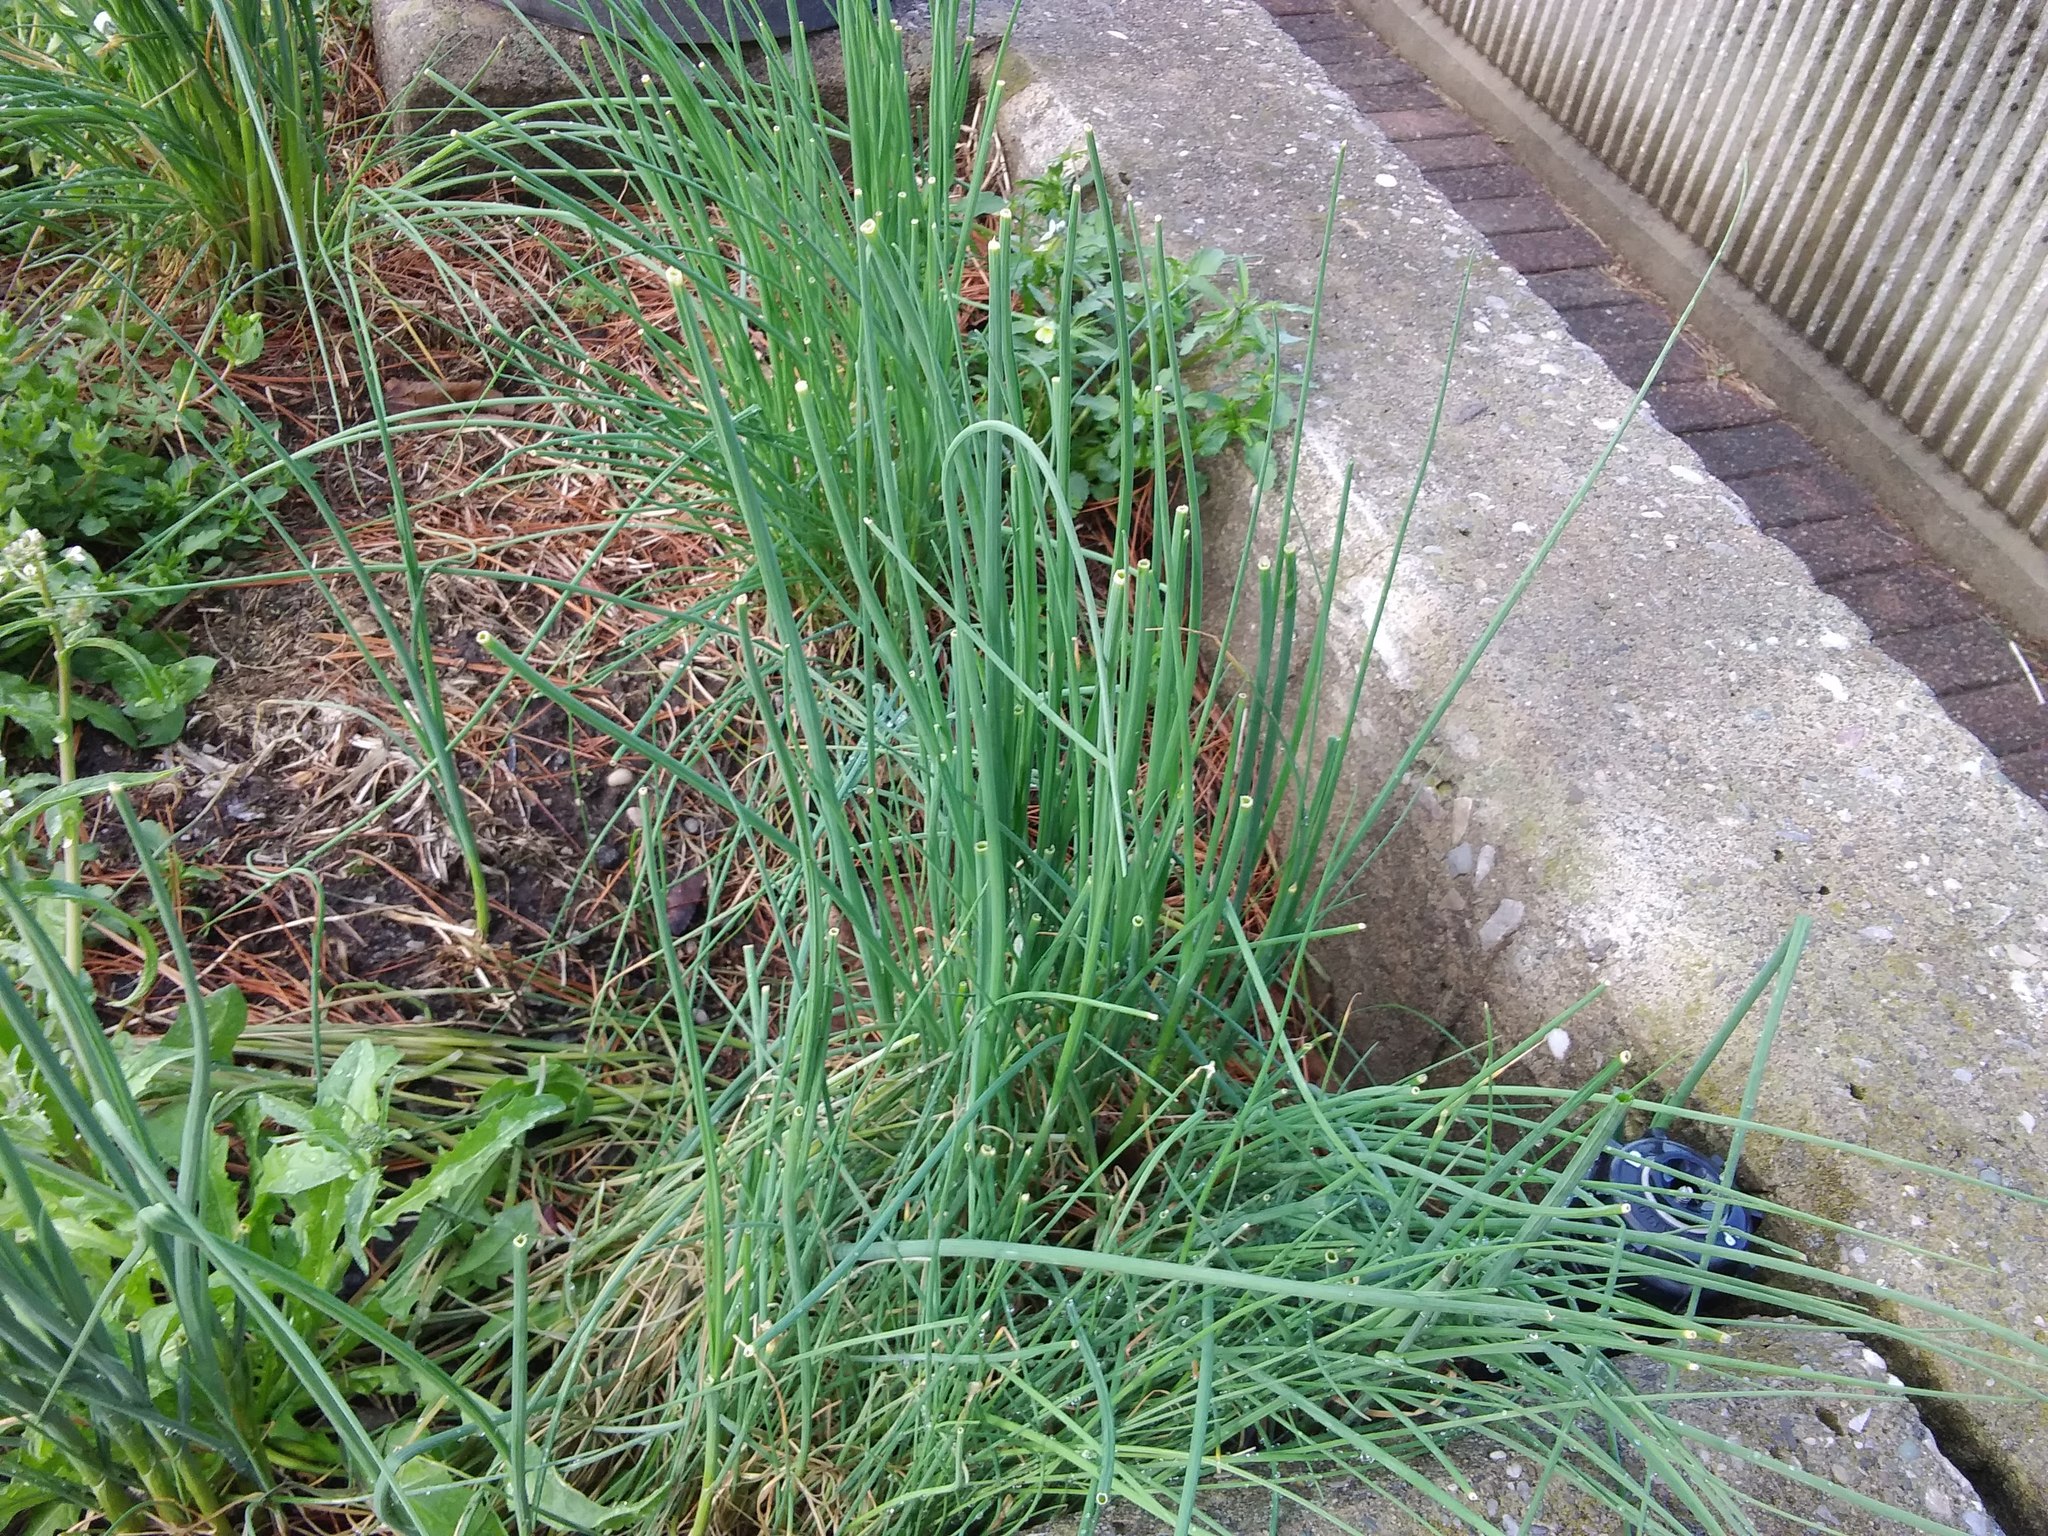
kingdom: Plantae
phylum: Tracheophyta
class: Liliopsida
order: Asparagales
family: Amaryllidaceae
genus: Allium
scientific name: Allium vineale
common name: Crow garlic
